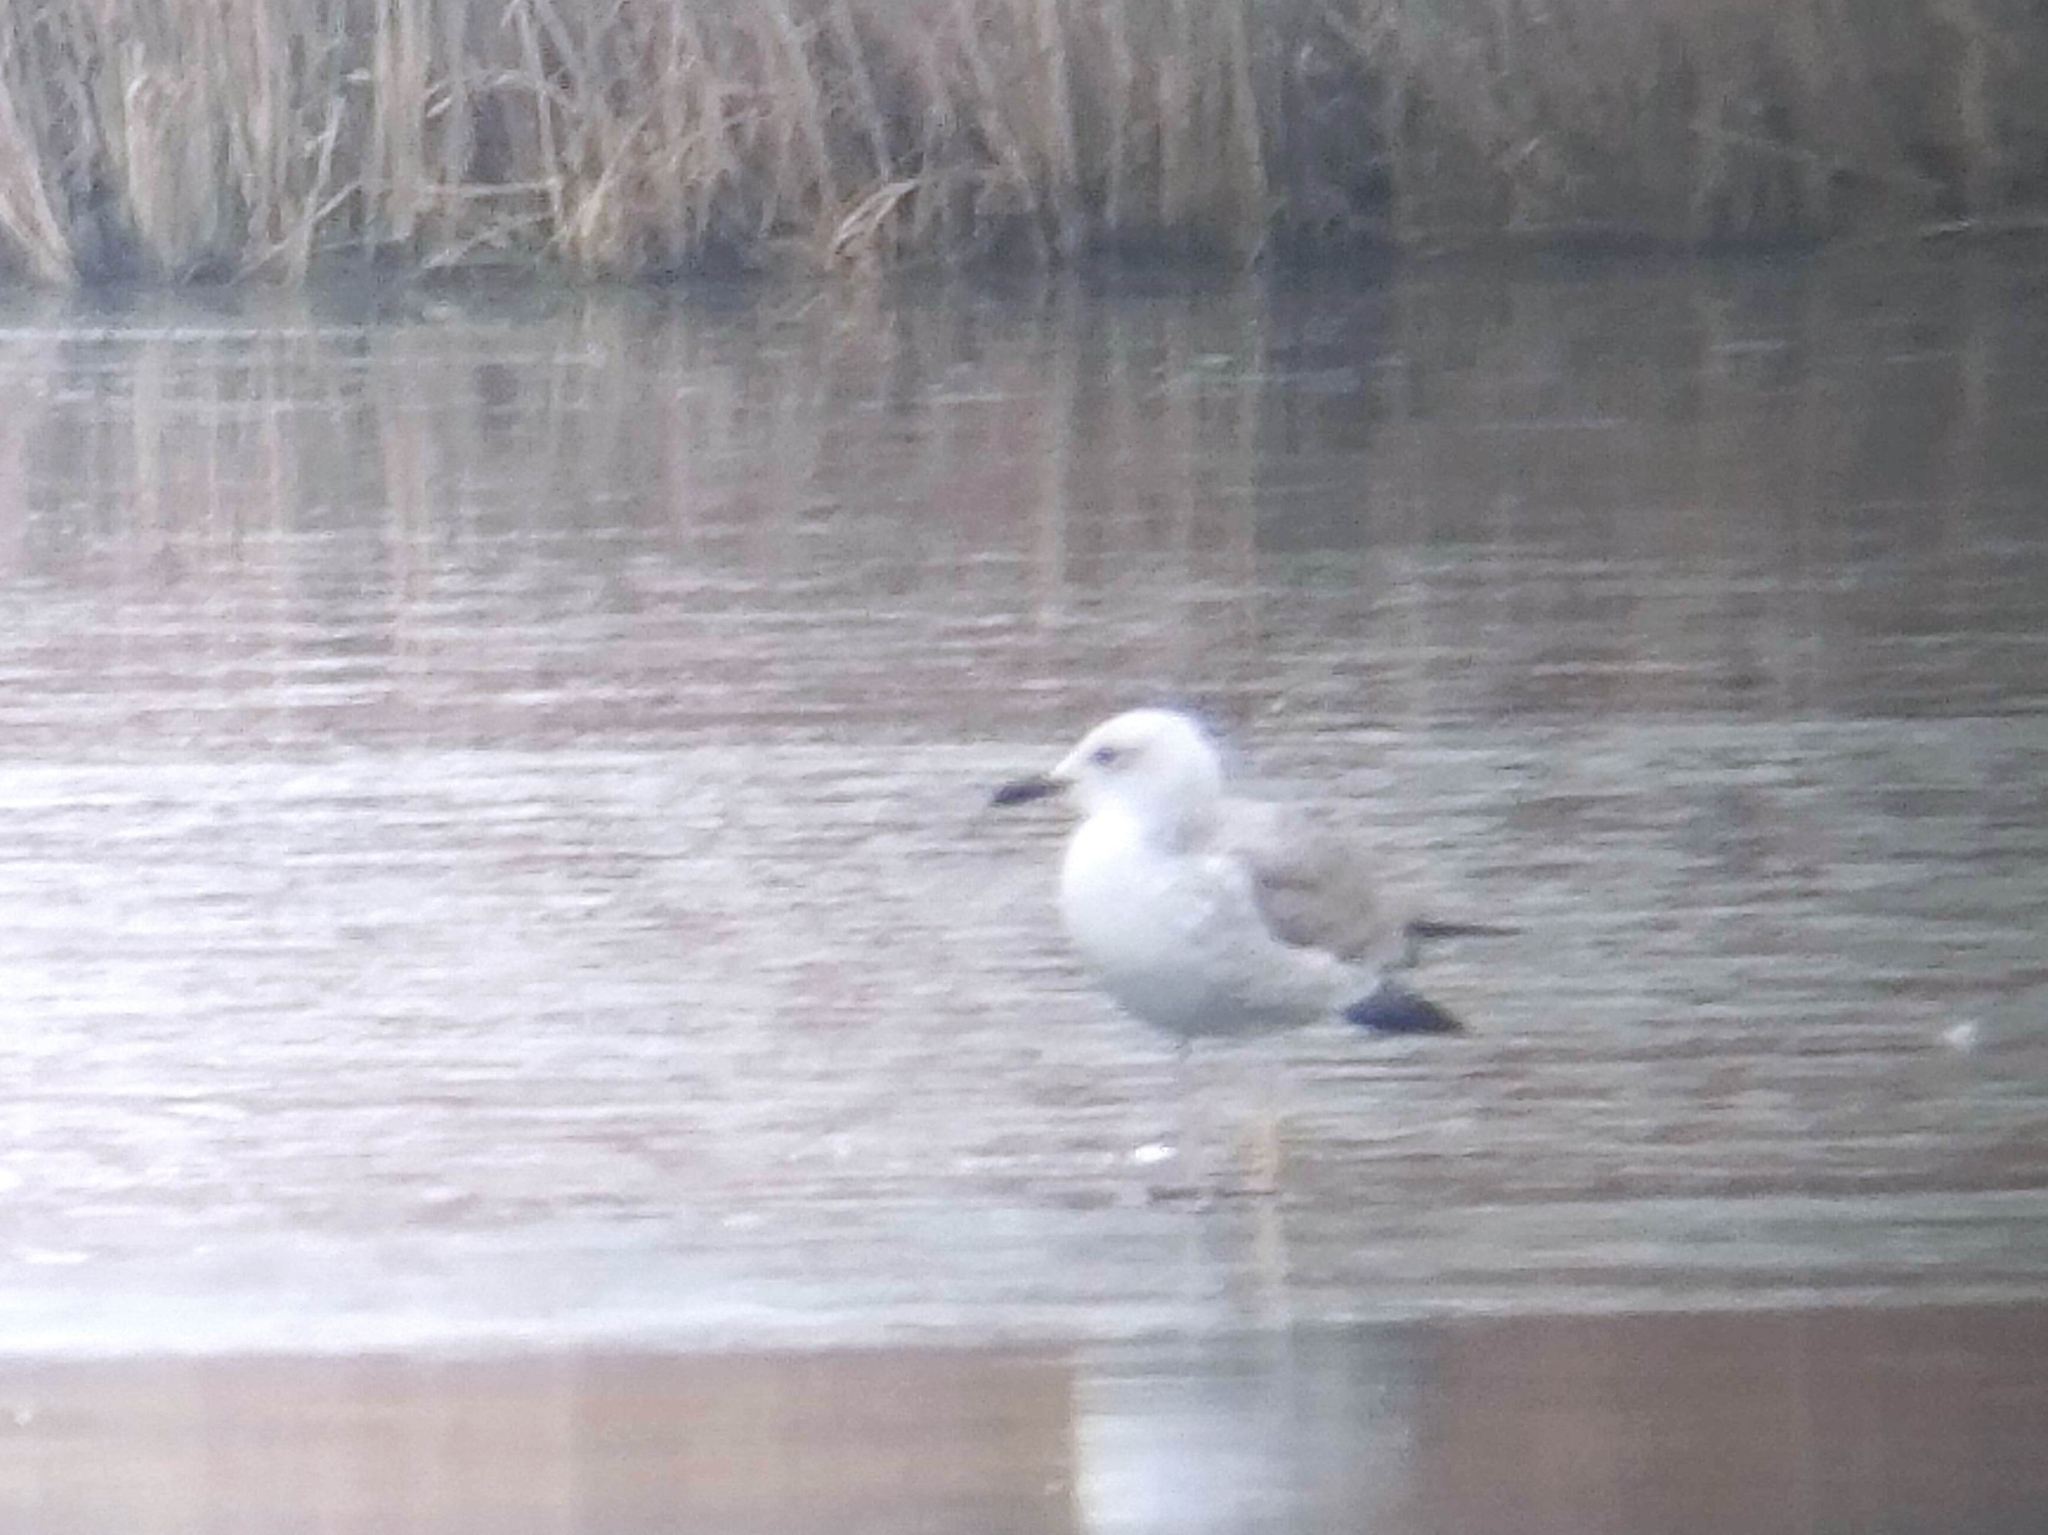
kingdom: Animalia
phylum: Chordata
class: Aves
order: Charadriiformes
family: Laridae
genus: Larus
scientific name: Larus cachinnans
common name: Caspian gull
